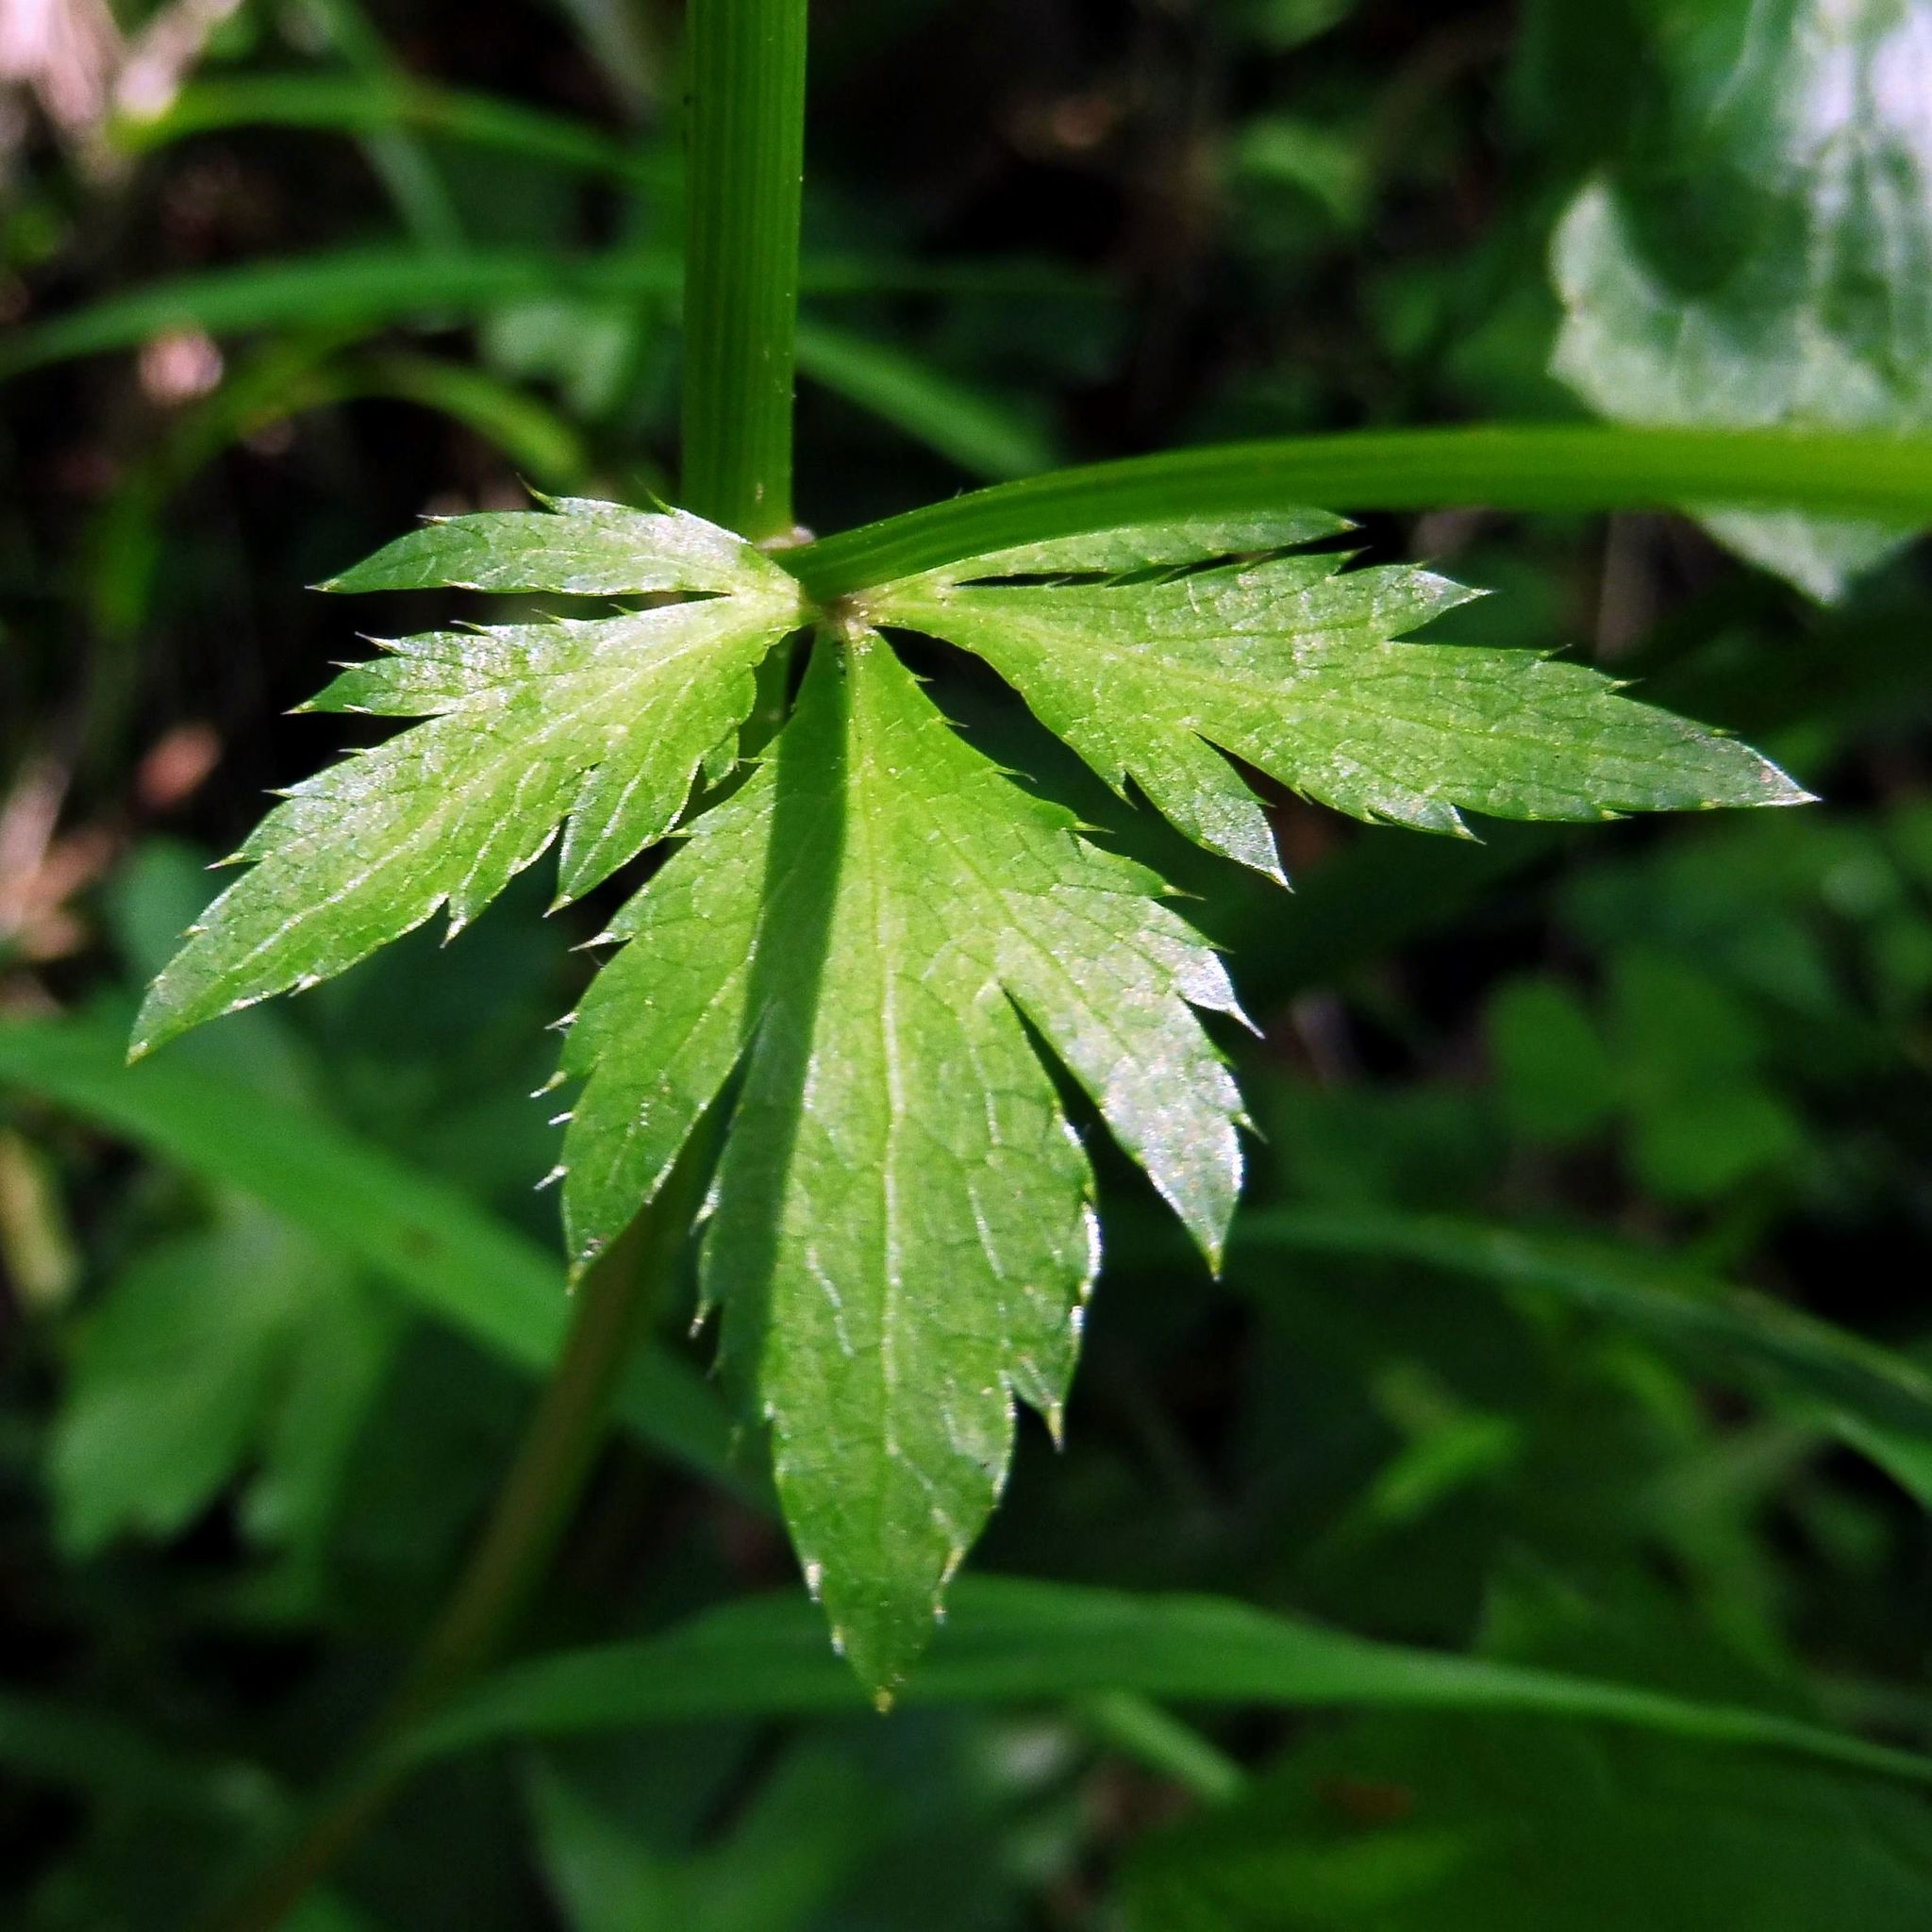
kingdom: Plantae
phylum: Tracheophyta
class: Magnoliopsida
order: Apiales
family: Apiaceae
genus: Sanicula
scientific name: Sanicula europaea
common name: Sanicle
